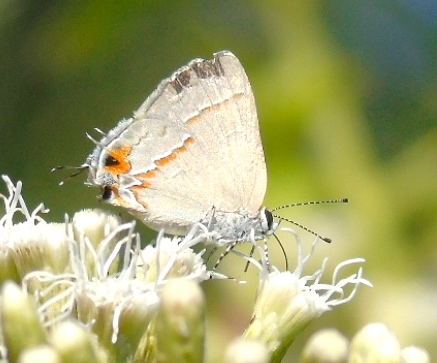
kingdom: Animalia
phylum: Arthropoda
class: Insecta
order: Lepidoptera
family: Lycaenidae
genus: Electrostrymon
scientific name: Electrostrymon endymion
